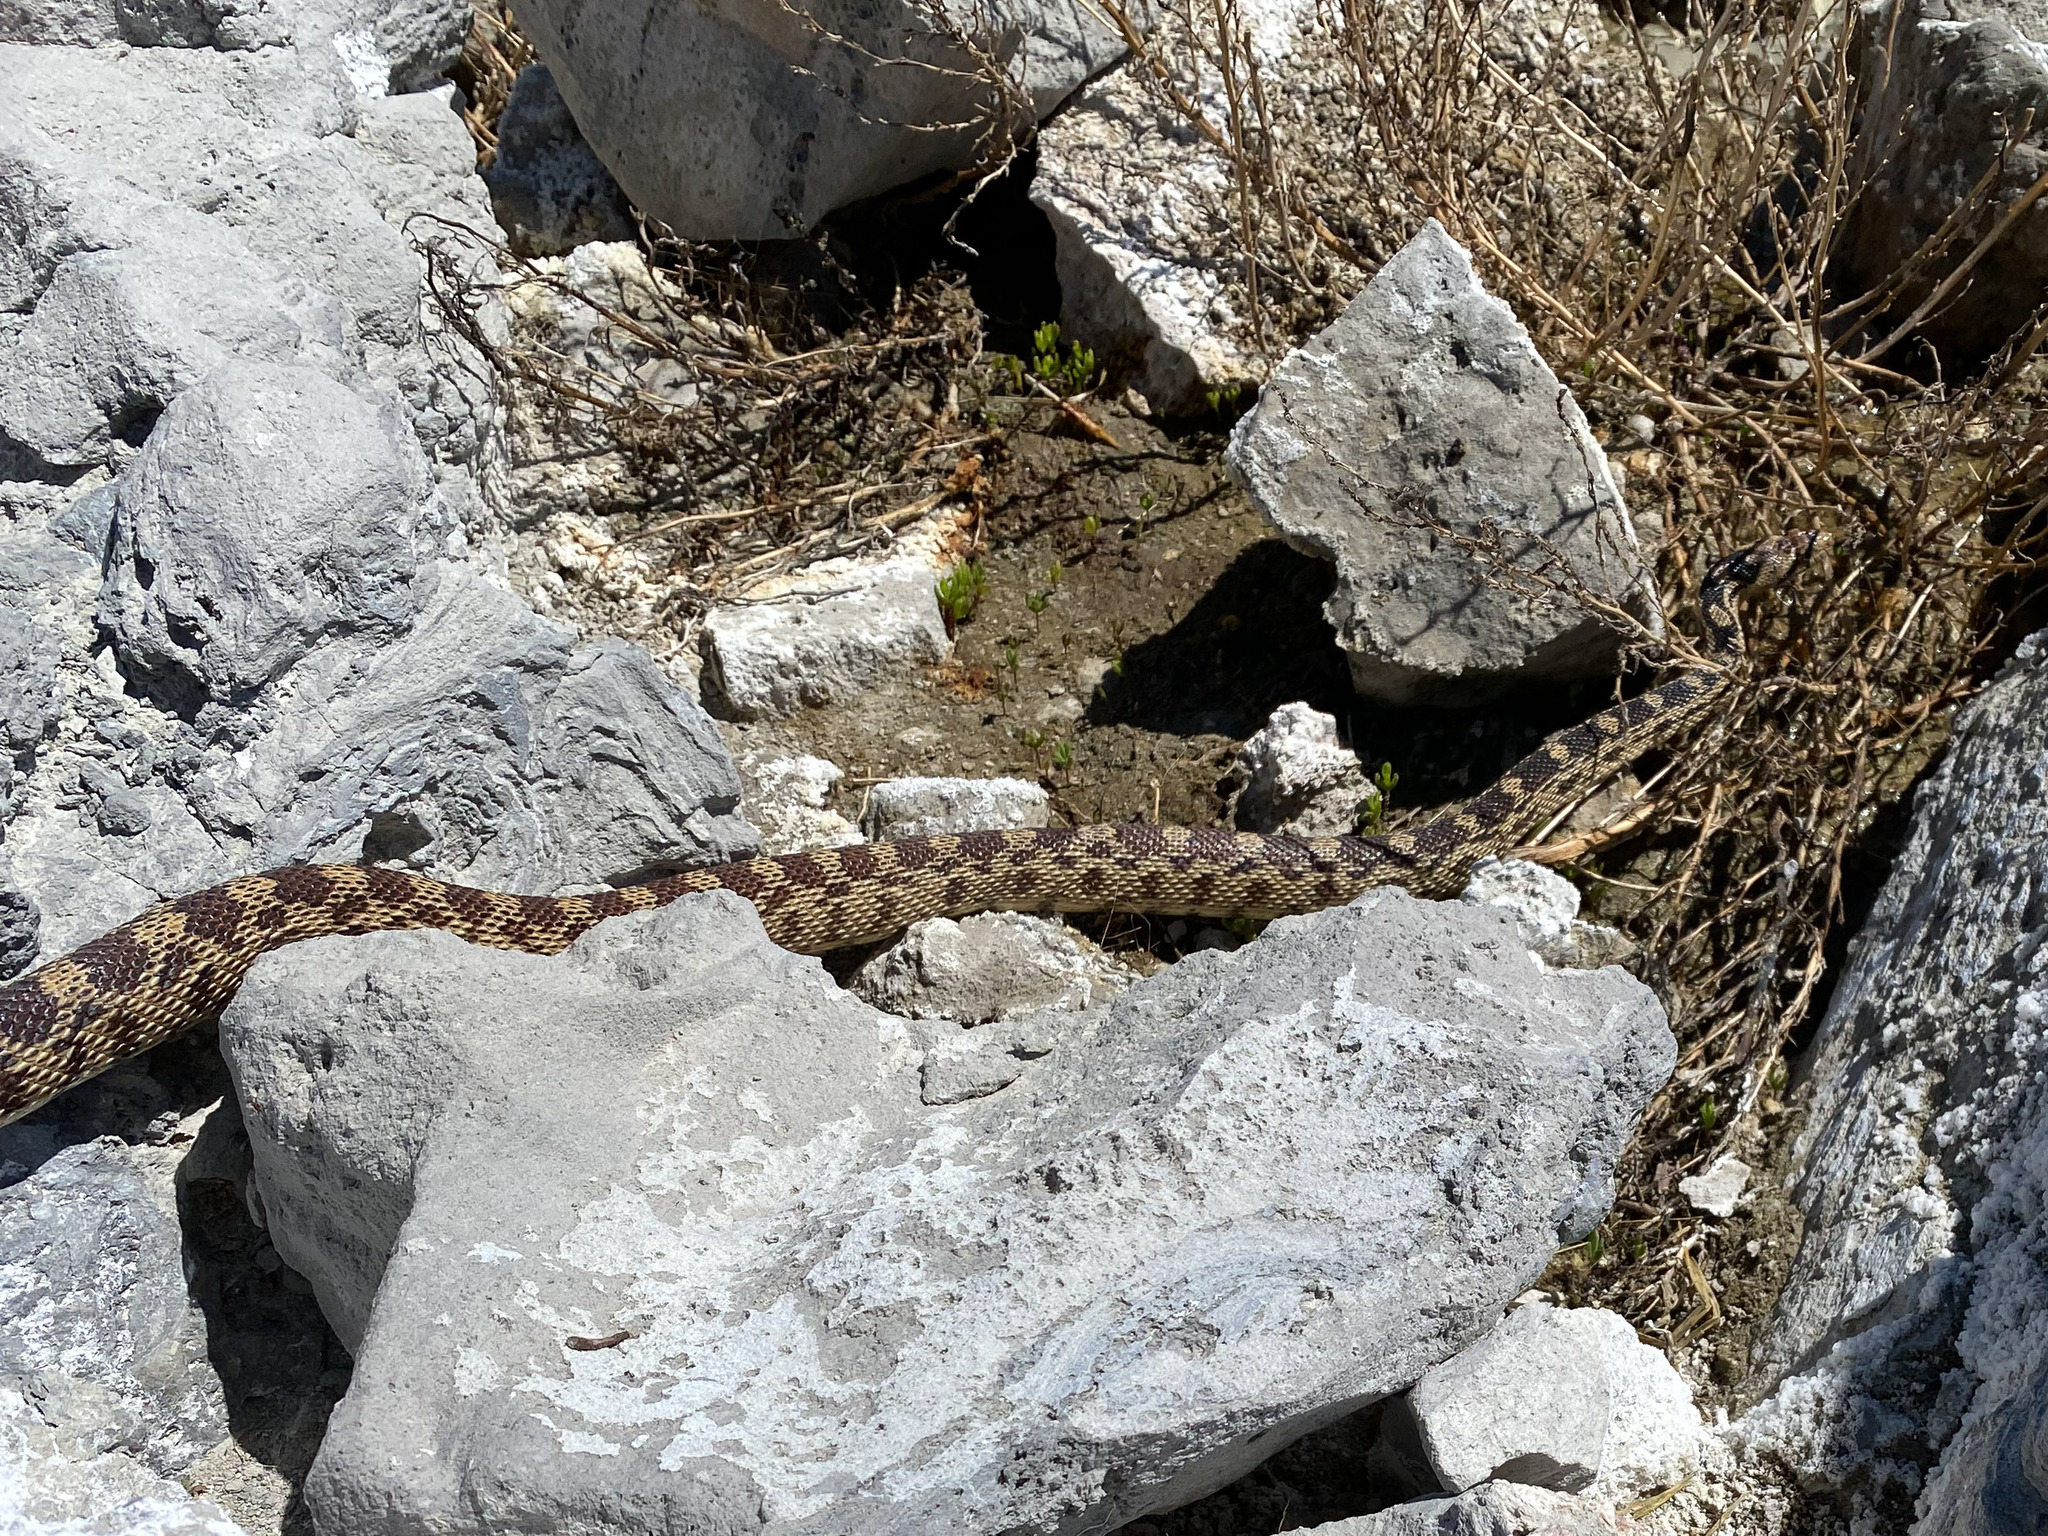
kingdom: Animalia
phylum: Chordata
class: Squamata
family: Colubridae
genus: Pituophis
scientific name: Pituophis catenifer
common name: Gopher snake
